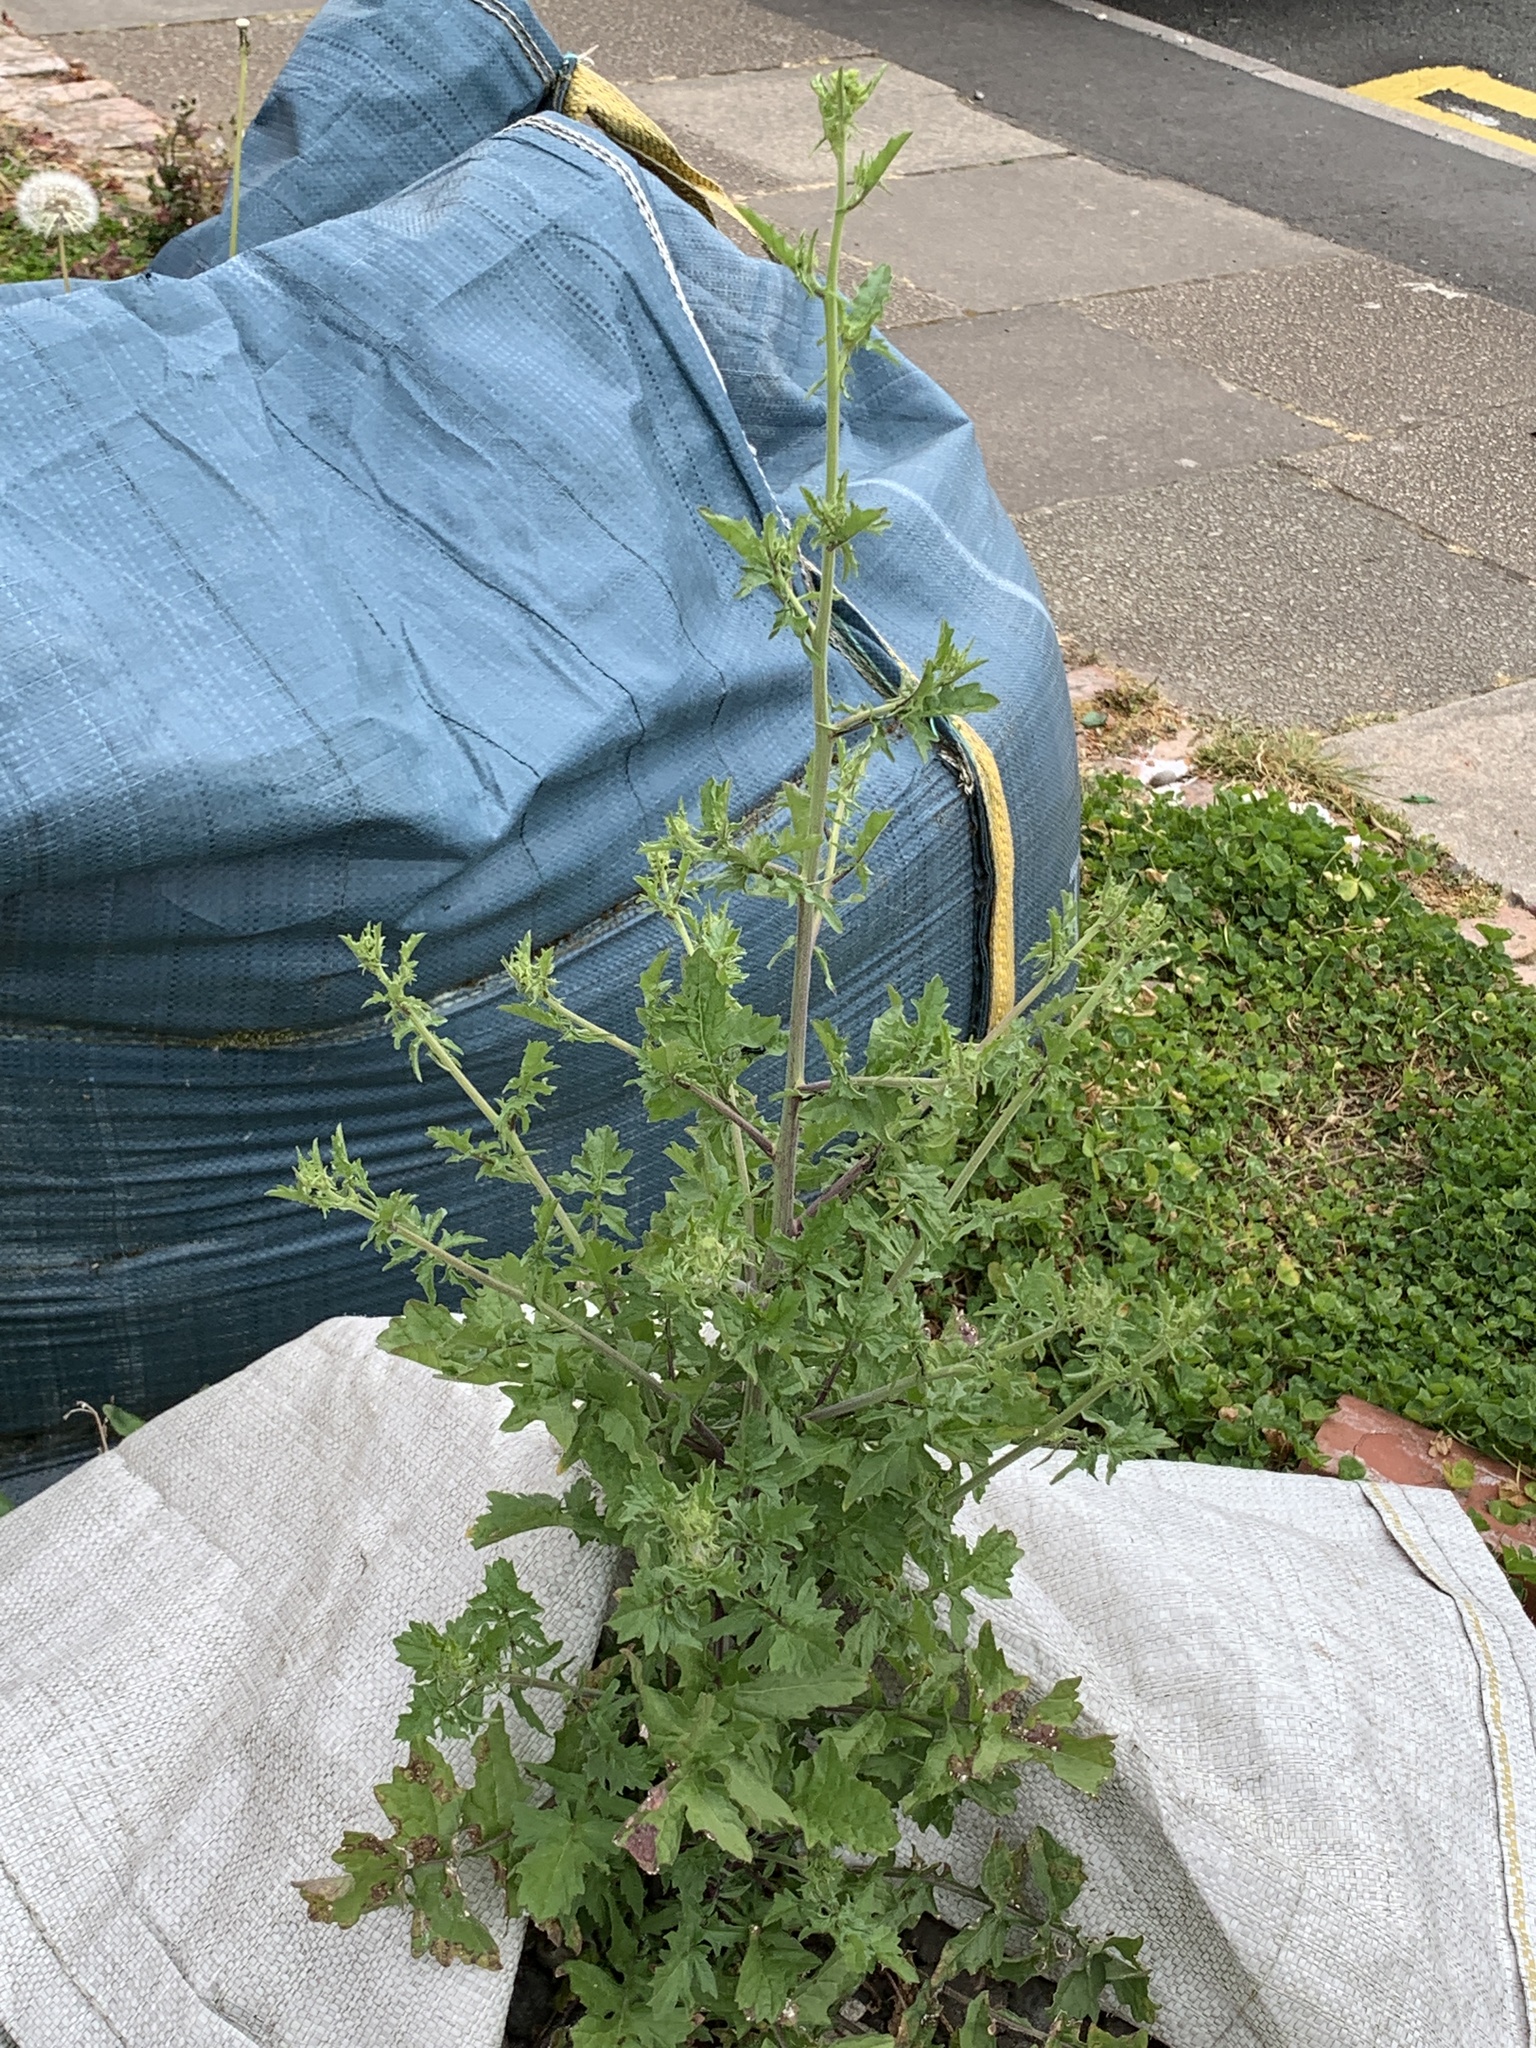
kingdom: Plantae
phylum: Tracheophyta
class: Magnoliopsida
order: Brassicales
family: Brassicaceae
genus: Sisymbrium
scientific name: Sisymbrium officinale
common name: Hedge mustard
